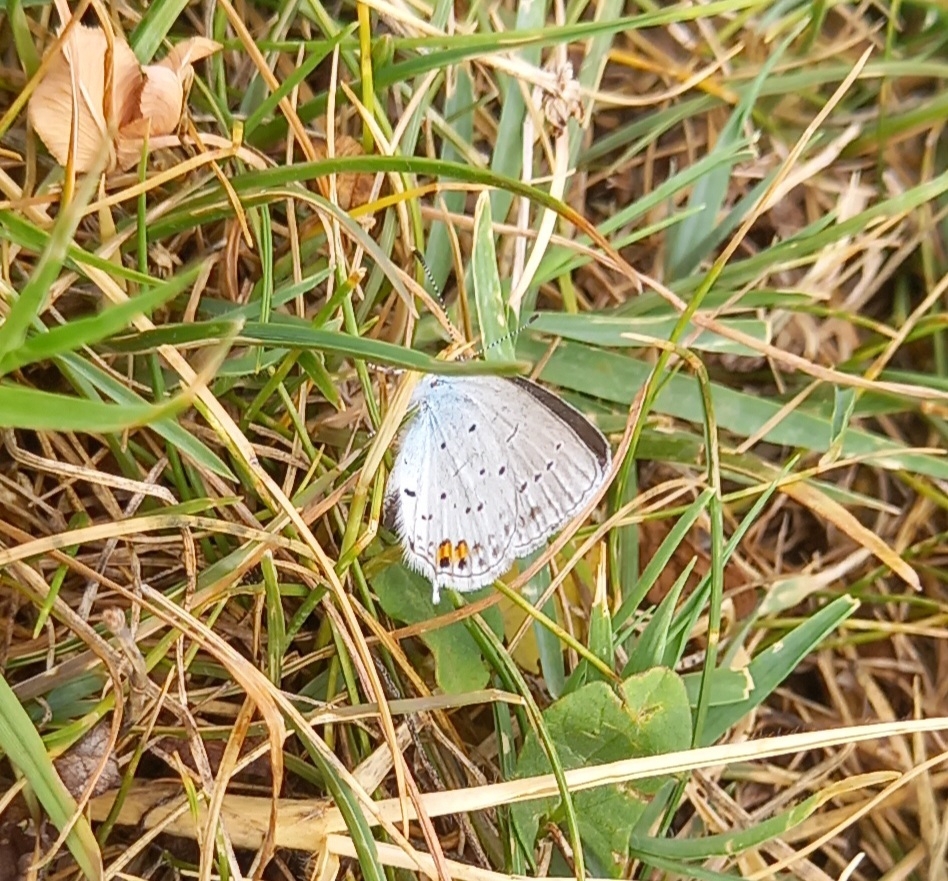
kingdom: Animalia
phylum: Arthropoda
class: Insecta
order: Lepidoptera
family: Lycaenidae
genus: Elkalyce
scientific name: Elkalyce argiades
